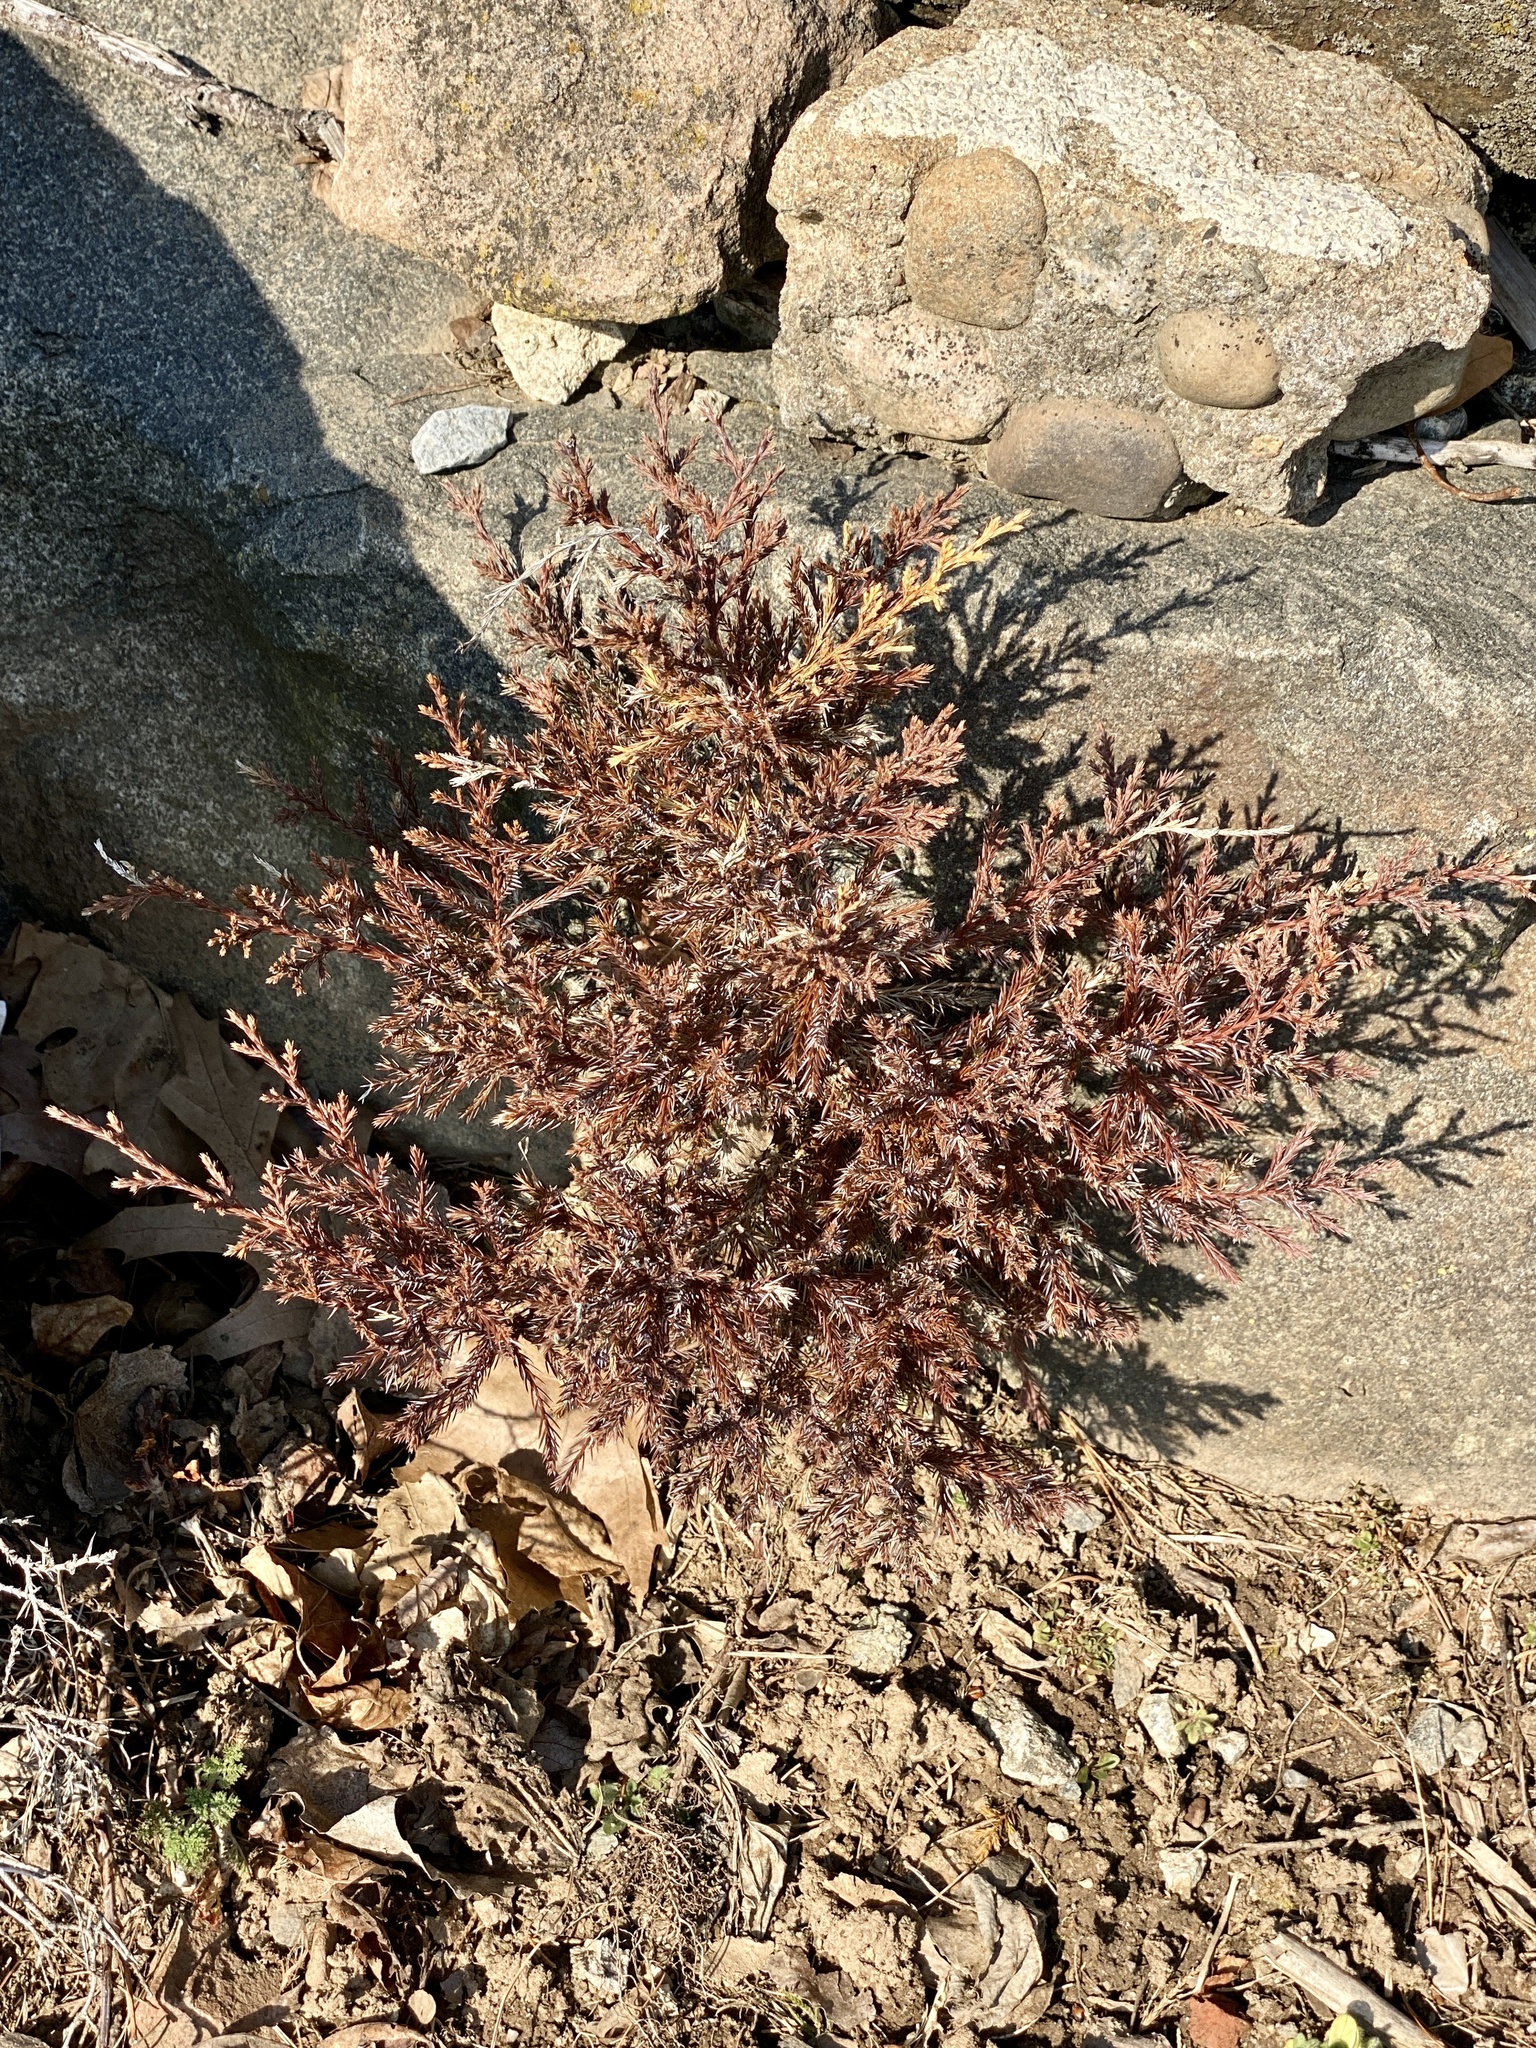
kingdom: Plantae
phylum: Tracheophyta
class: Pinopsida
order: Pinales
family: Cupressaceae
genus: Juniperus
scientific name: Juniperus virginiana
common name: Red juniper
